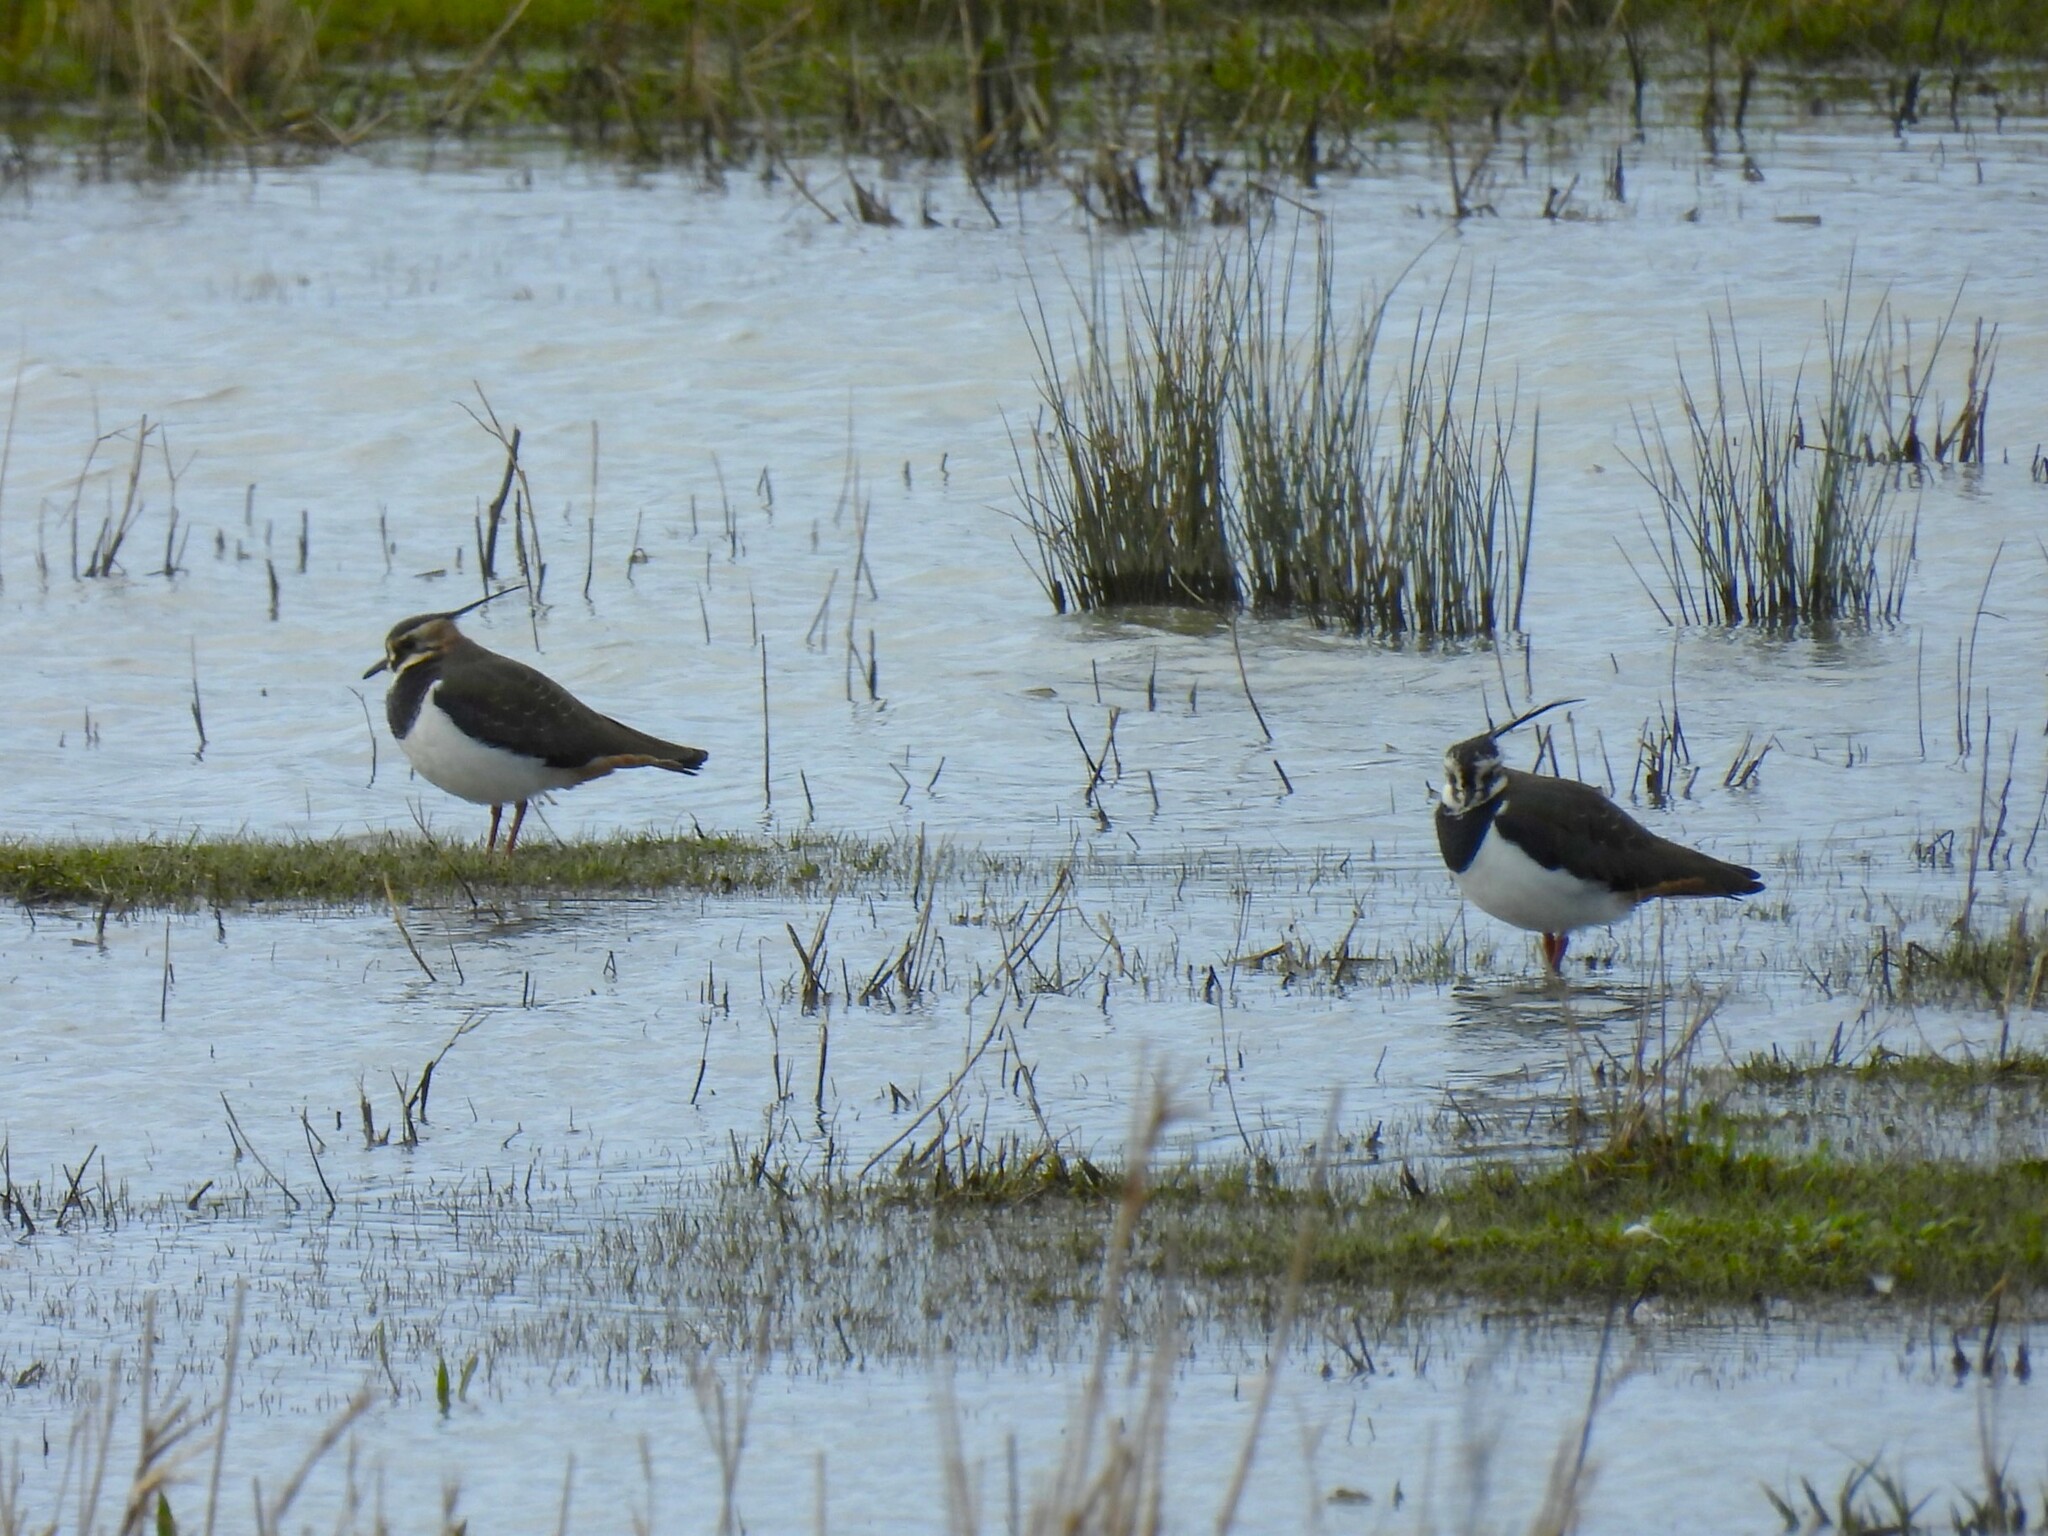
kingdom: Animalia
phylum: Chordata
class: Aves
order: Charadriiformes
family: Charadriidae
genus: Vanellus
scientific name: Vanellus vanellus
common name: Northern lapwing
